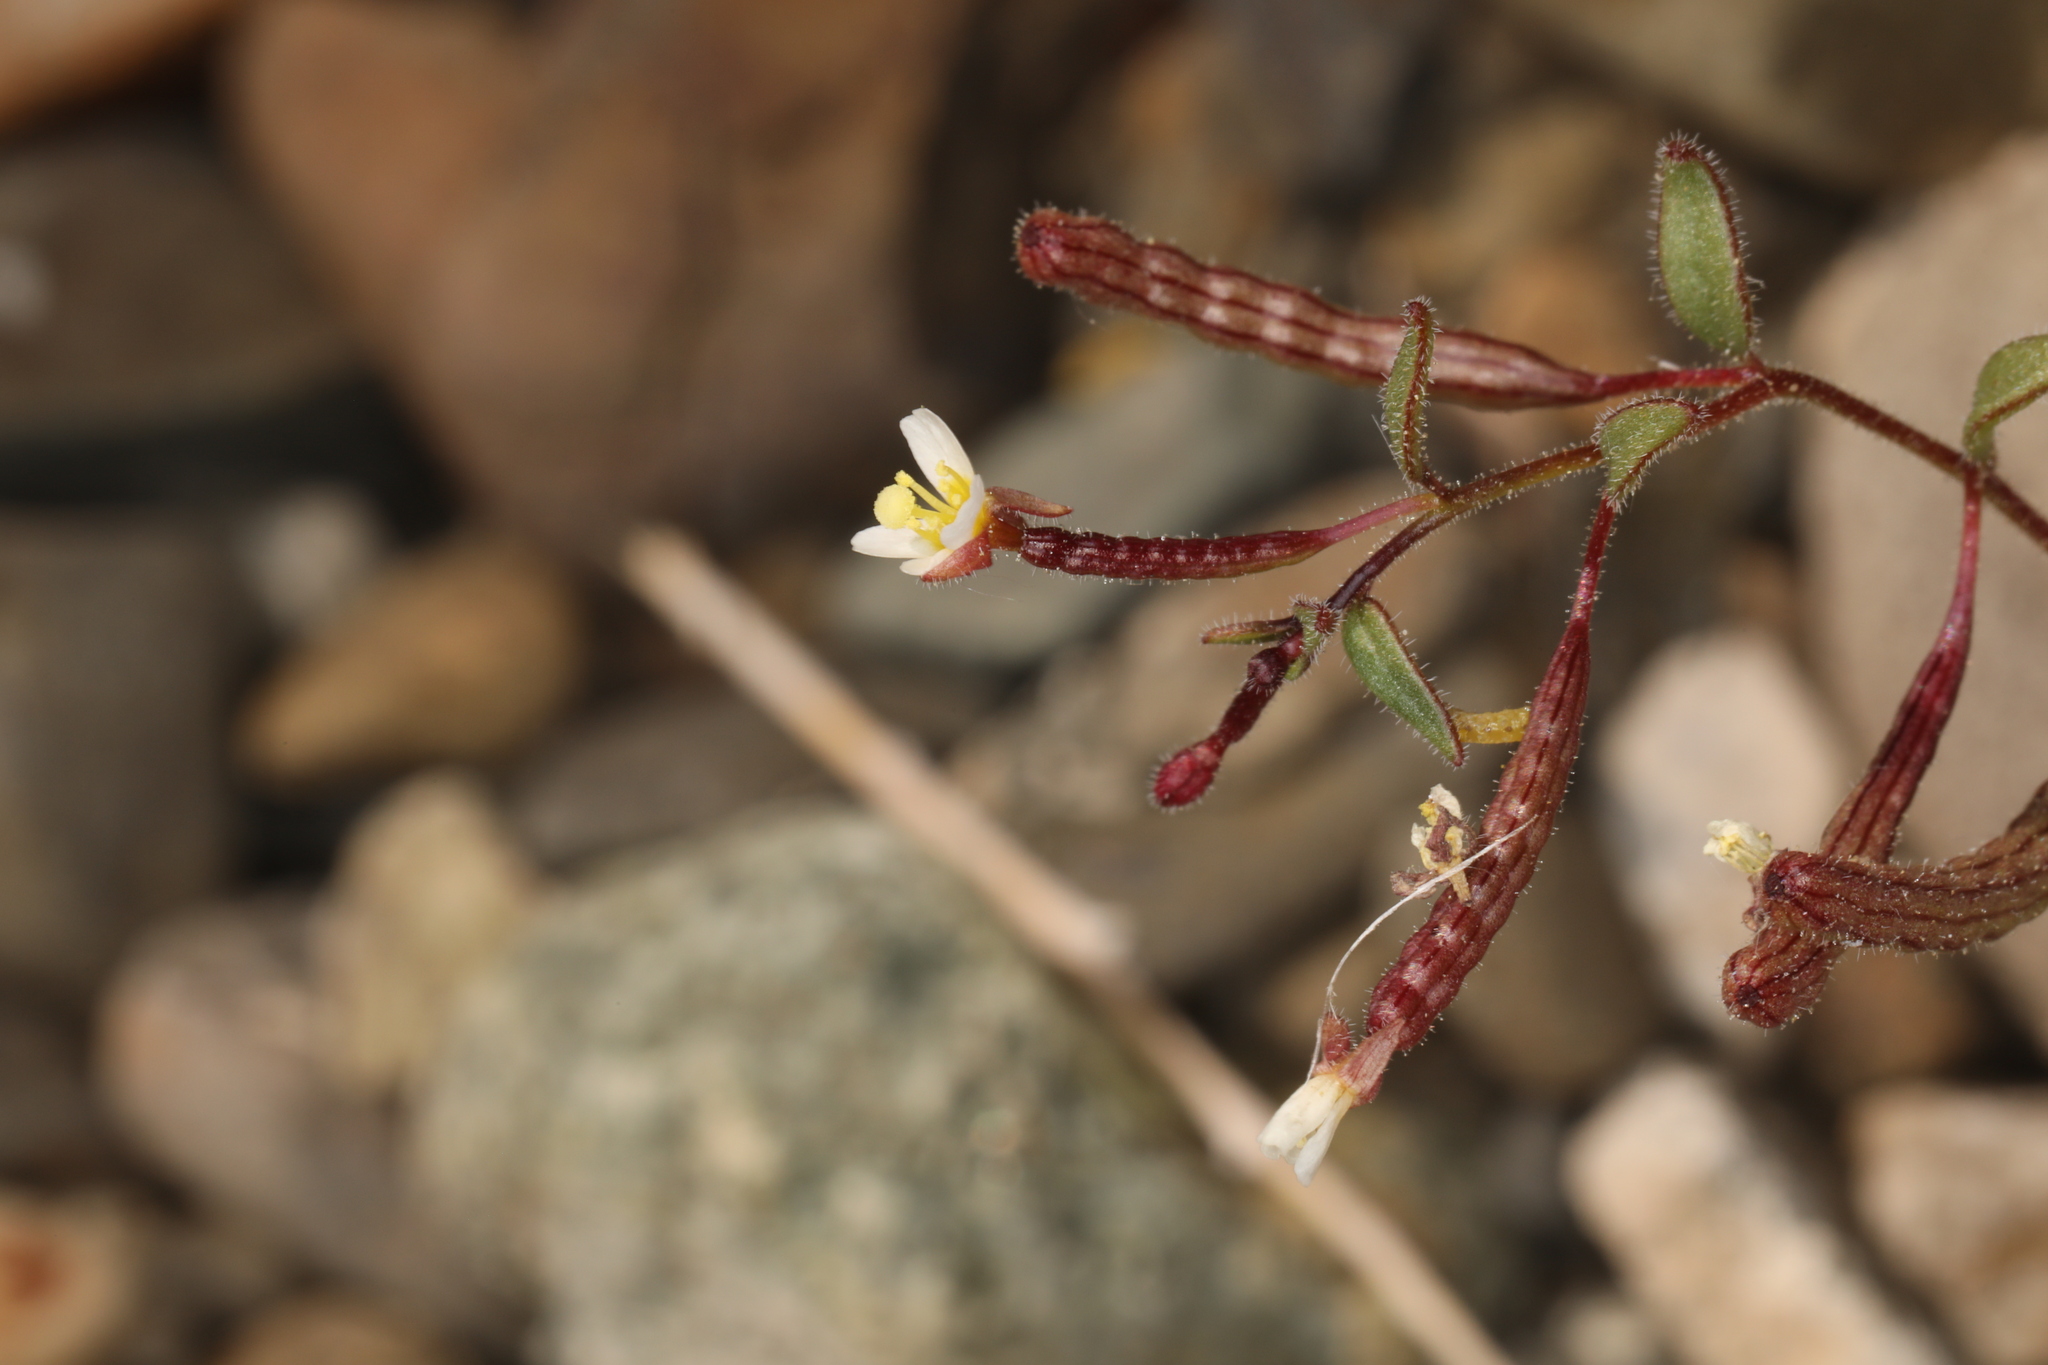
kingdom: Plantae
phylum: Tracheophyta
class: Magnoliopsida
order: Myrtales
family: Onagraceae
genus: Chylismiella
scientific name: Chylismiella pterosperma
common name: Wingfruit suncup
